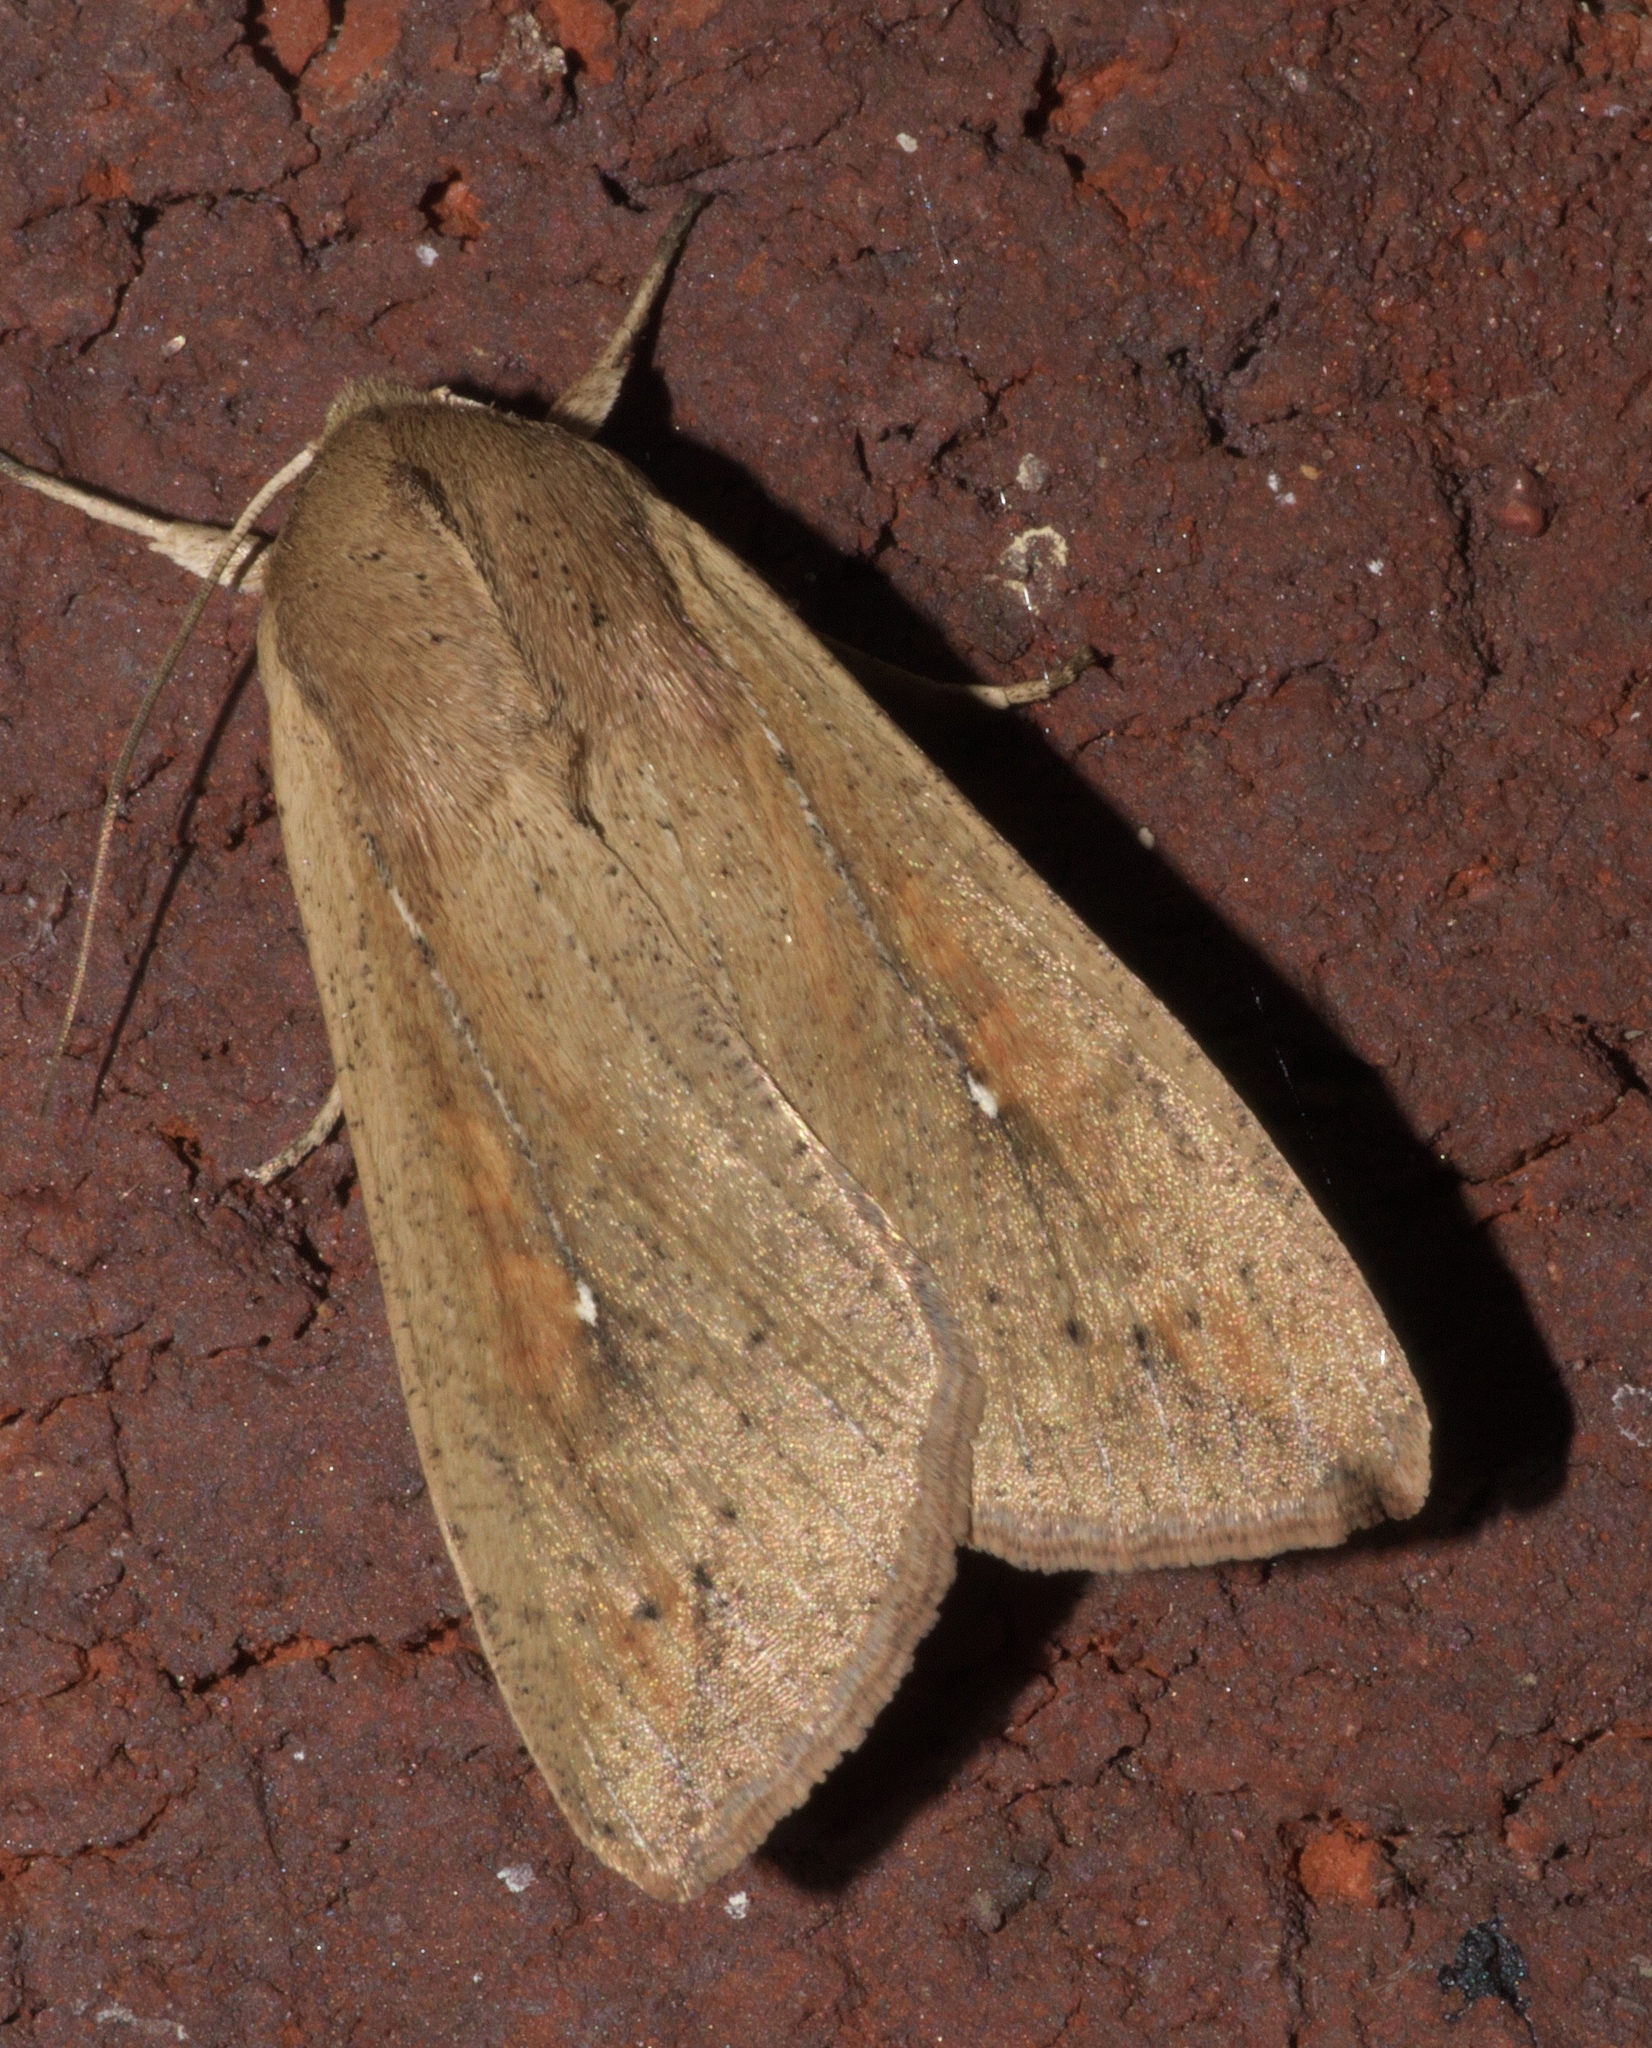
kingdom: Animalia
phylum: Arthropoda
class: Insecta
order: Lepidoptera
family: Noctuidae
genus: Mythimna
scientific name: Mythimna unipuncta
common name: White-speck
